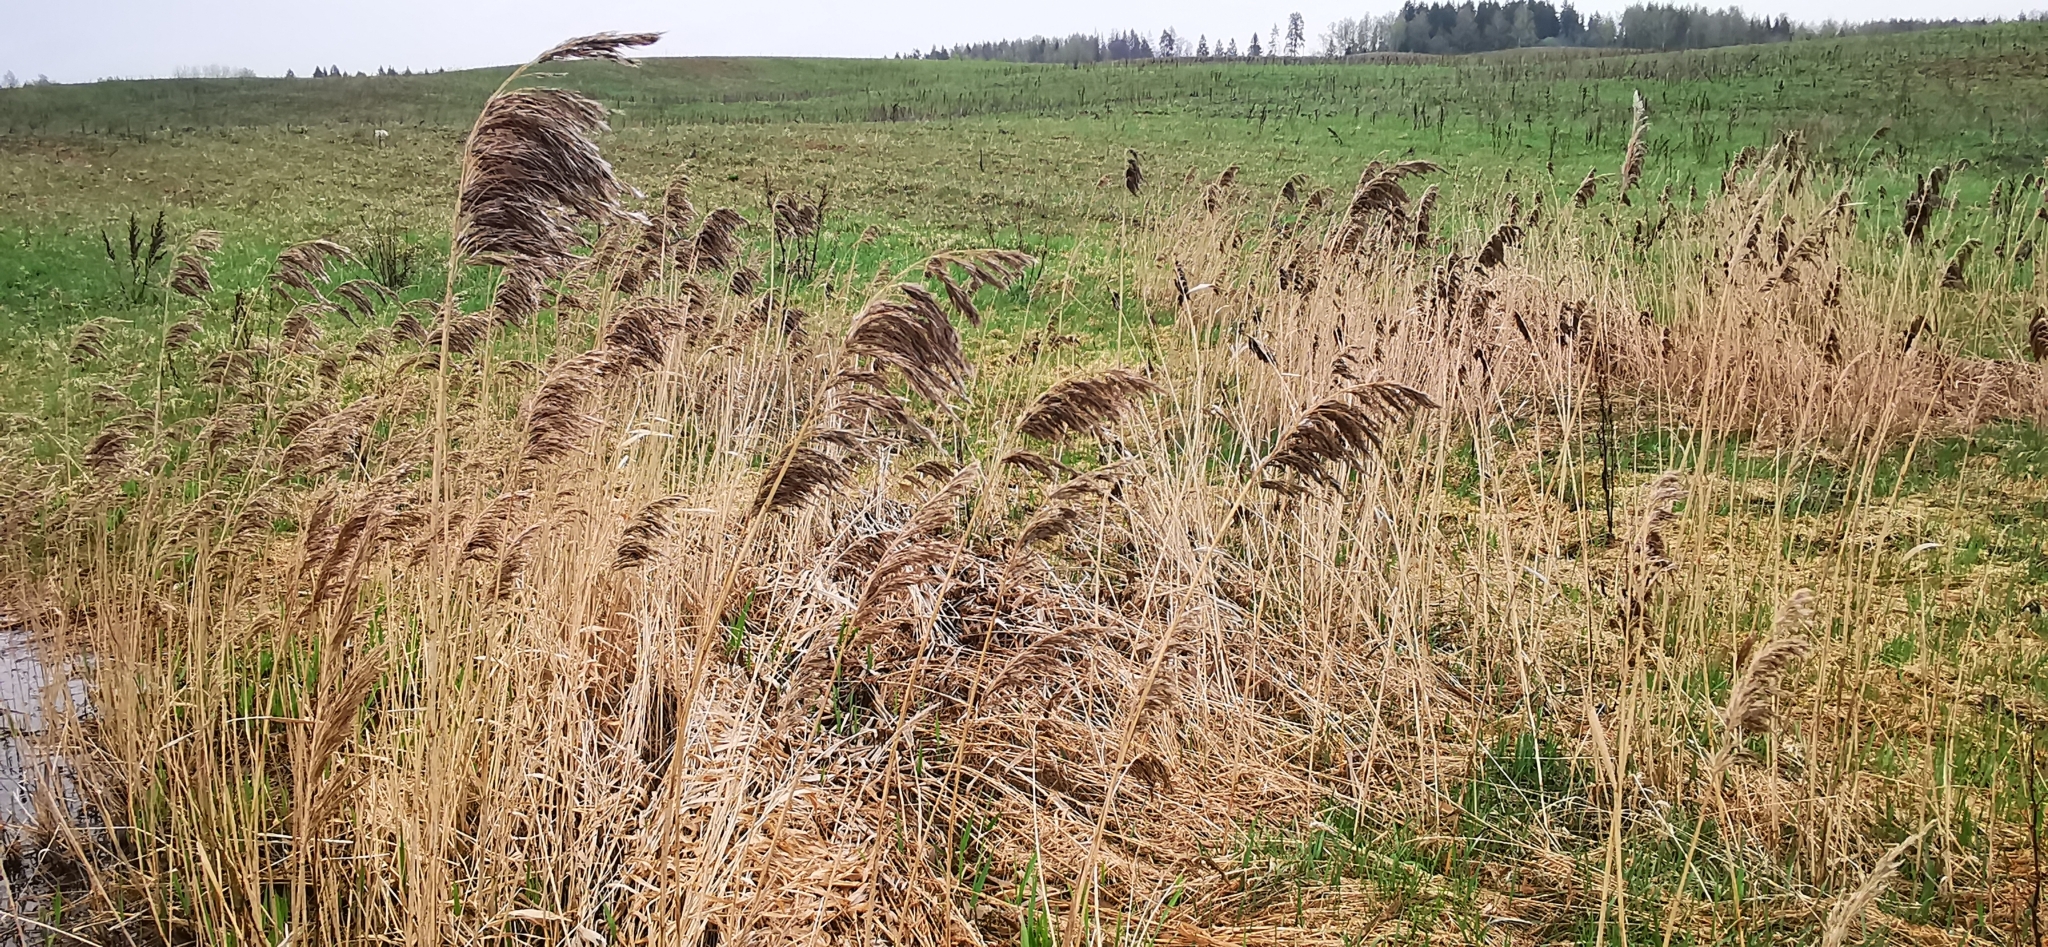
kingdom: Plantae
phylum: Tracheophyta
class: Liliopsida
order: Poales
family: Poaceae
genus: Phragmites
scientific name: Phragmites australis
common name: Common reed
